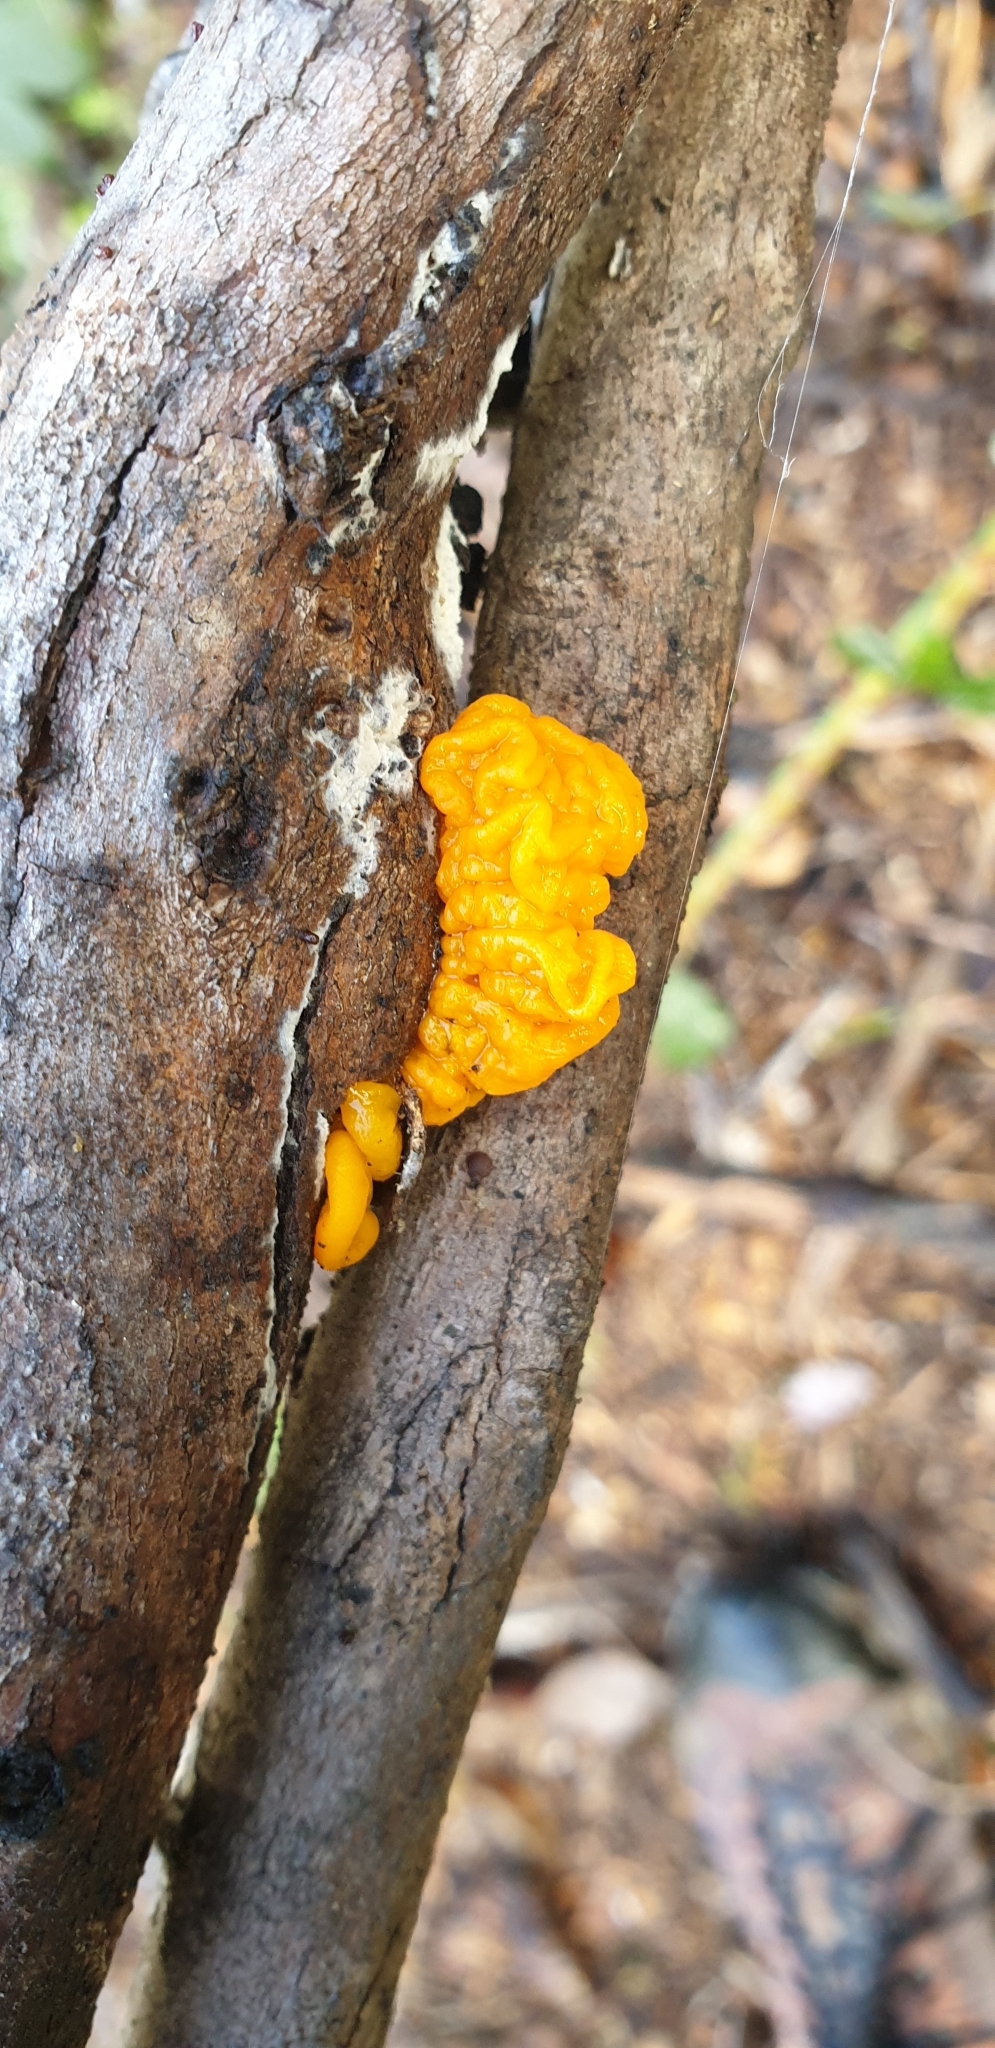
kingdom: Fungi
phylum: Basidiomycota
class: Tremellomycetes
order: Tremellales
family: Tremellaceae
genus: Tremella
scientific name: Tremella mesenterica
